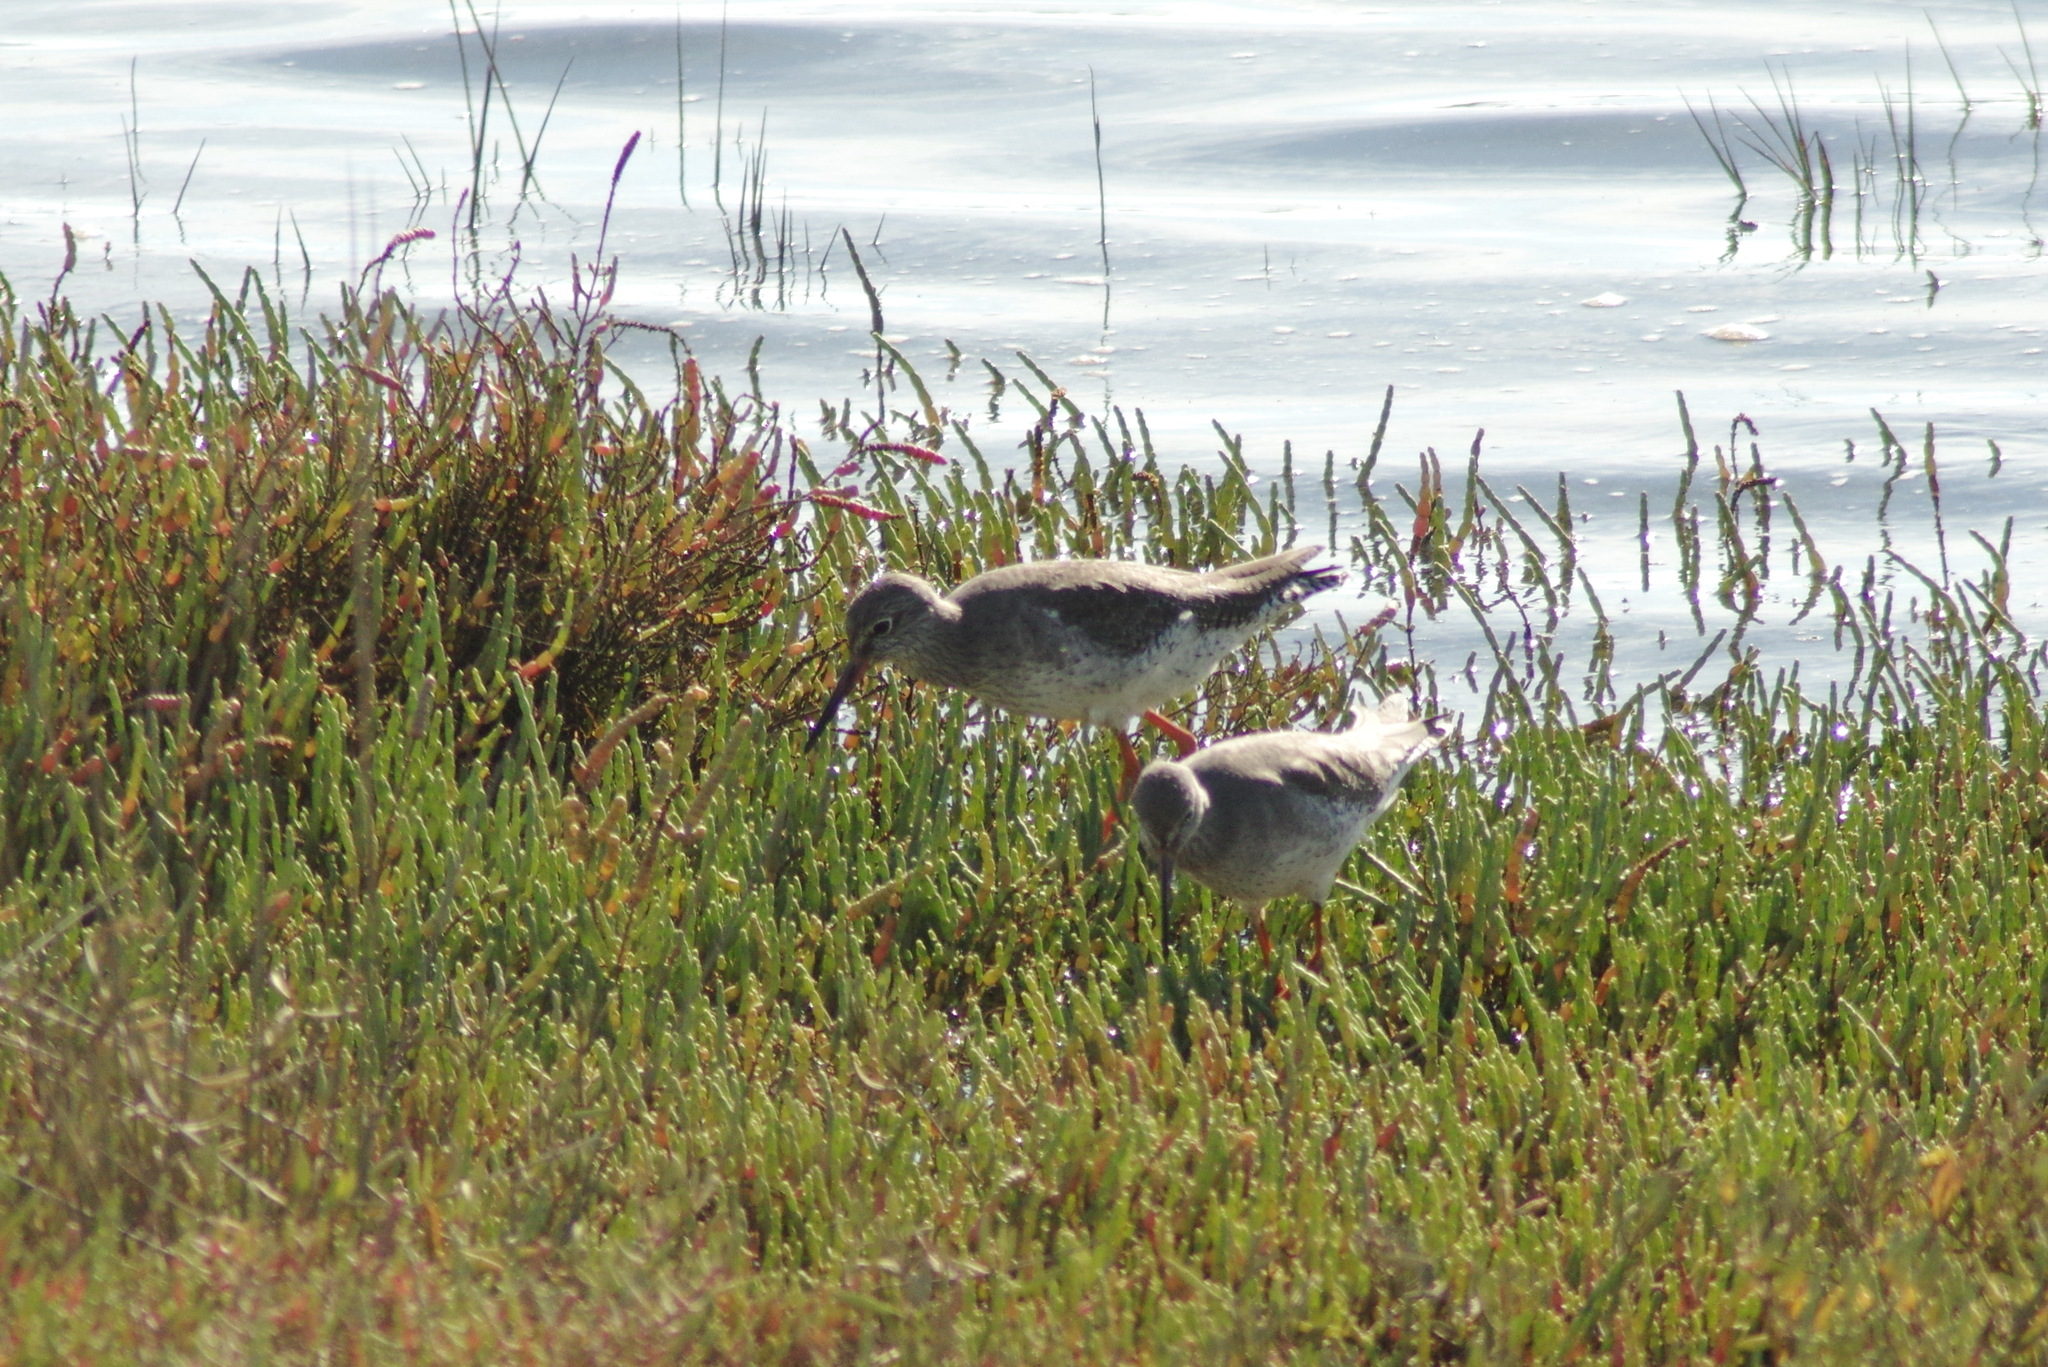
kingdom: Animalia
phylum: Chordata
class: Aves
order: Charadriiformes
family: Scolopacidae
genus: Tringa
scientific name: Tringa totanus
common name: Common redshank
